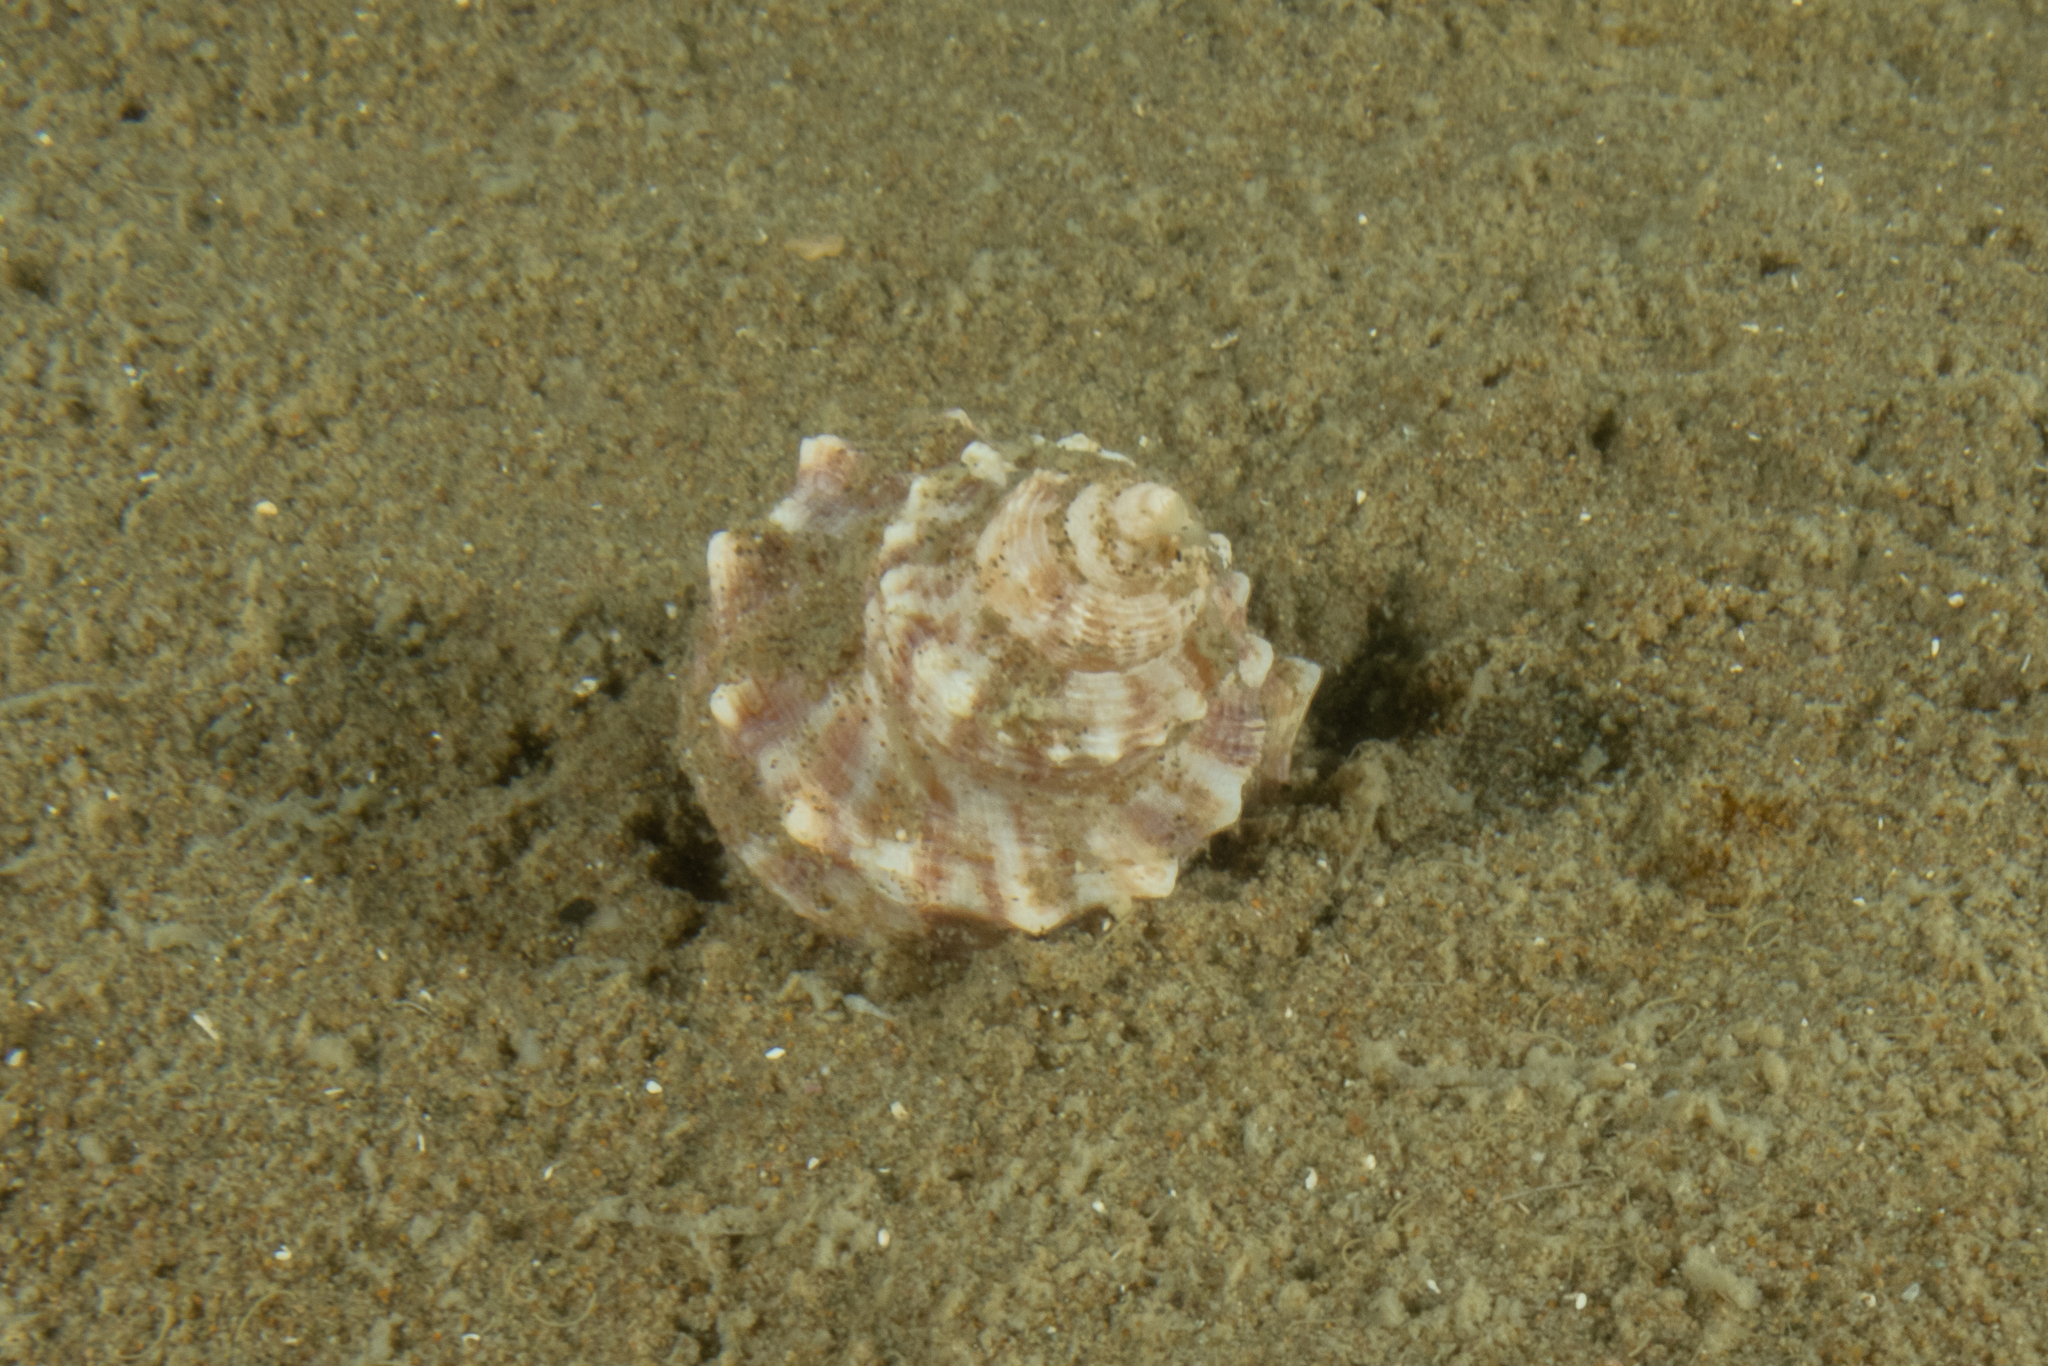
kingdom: Animalia
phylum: Mollusca
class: Gastropoda
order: Littorinimorpha
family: Struthiolariidae
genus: Struthiolaria
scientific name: Struthiolaria papulosa
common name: Large ostrich foot
